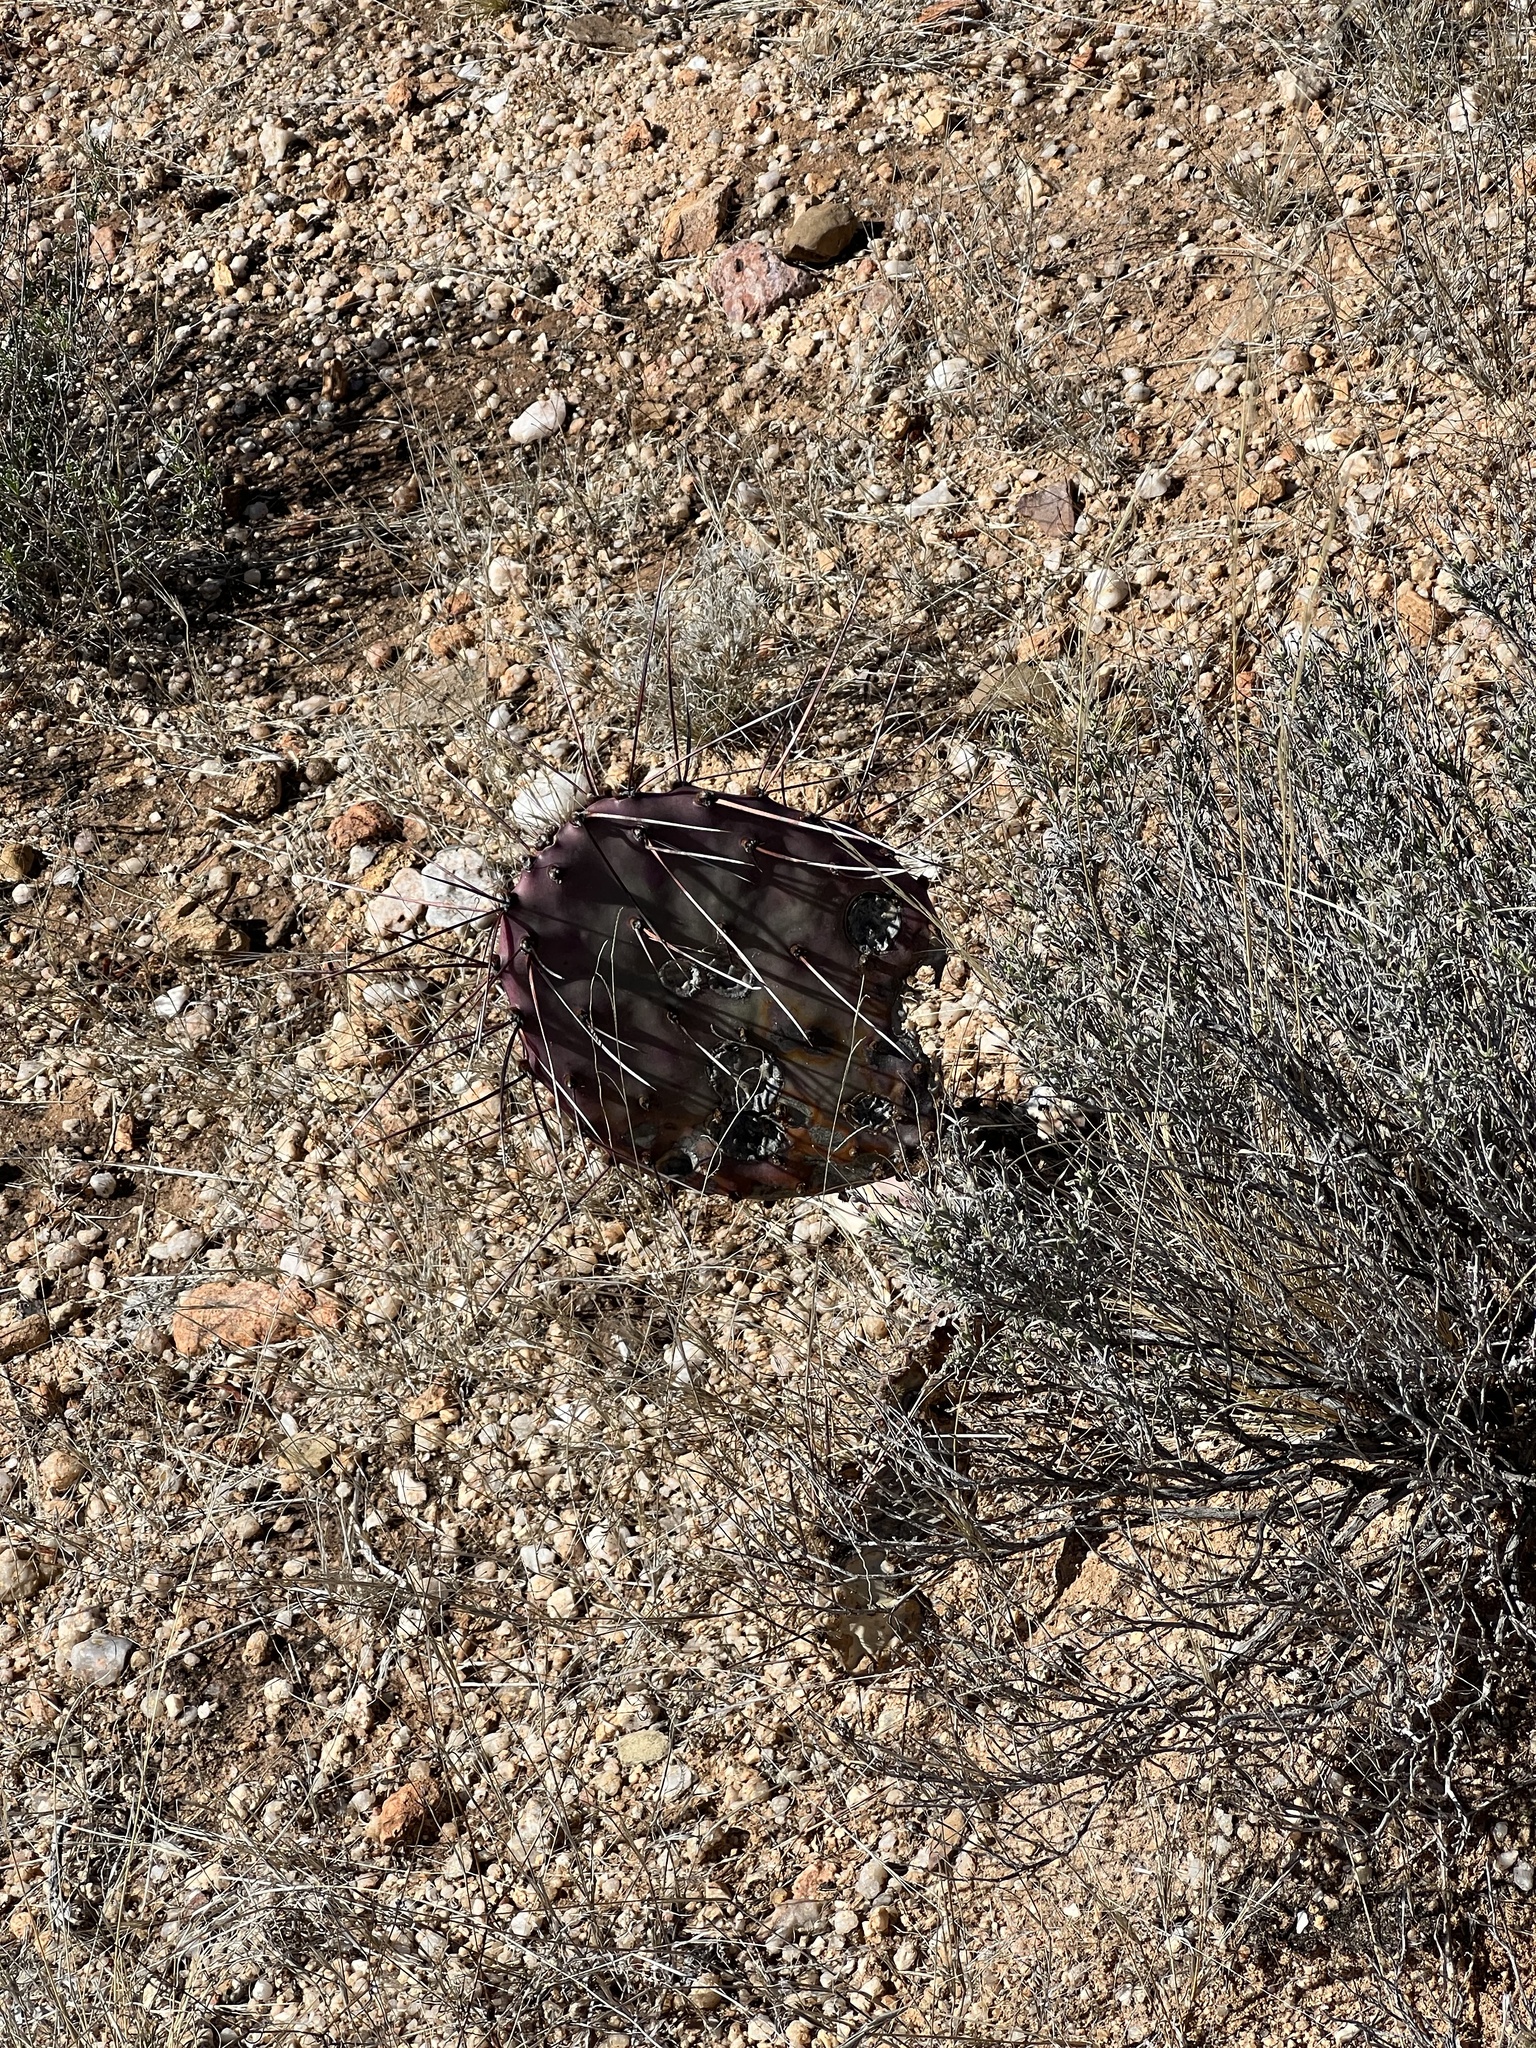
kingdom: Plantae
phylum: Tracheophyta
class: Magnoliopsida
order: Caryophyllales
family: Cactaceae
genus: Opuntia
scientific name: Opuntia macrocentra
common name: Purple prickly-pear
